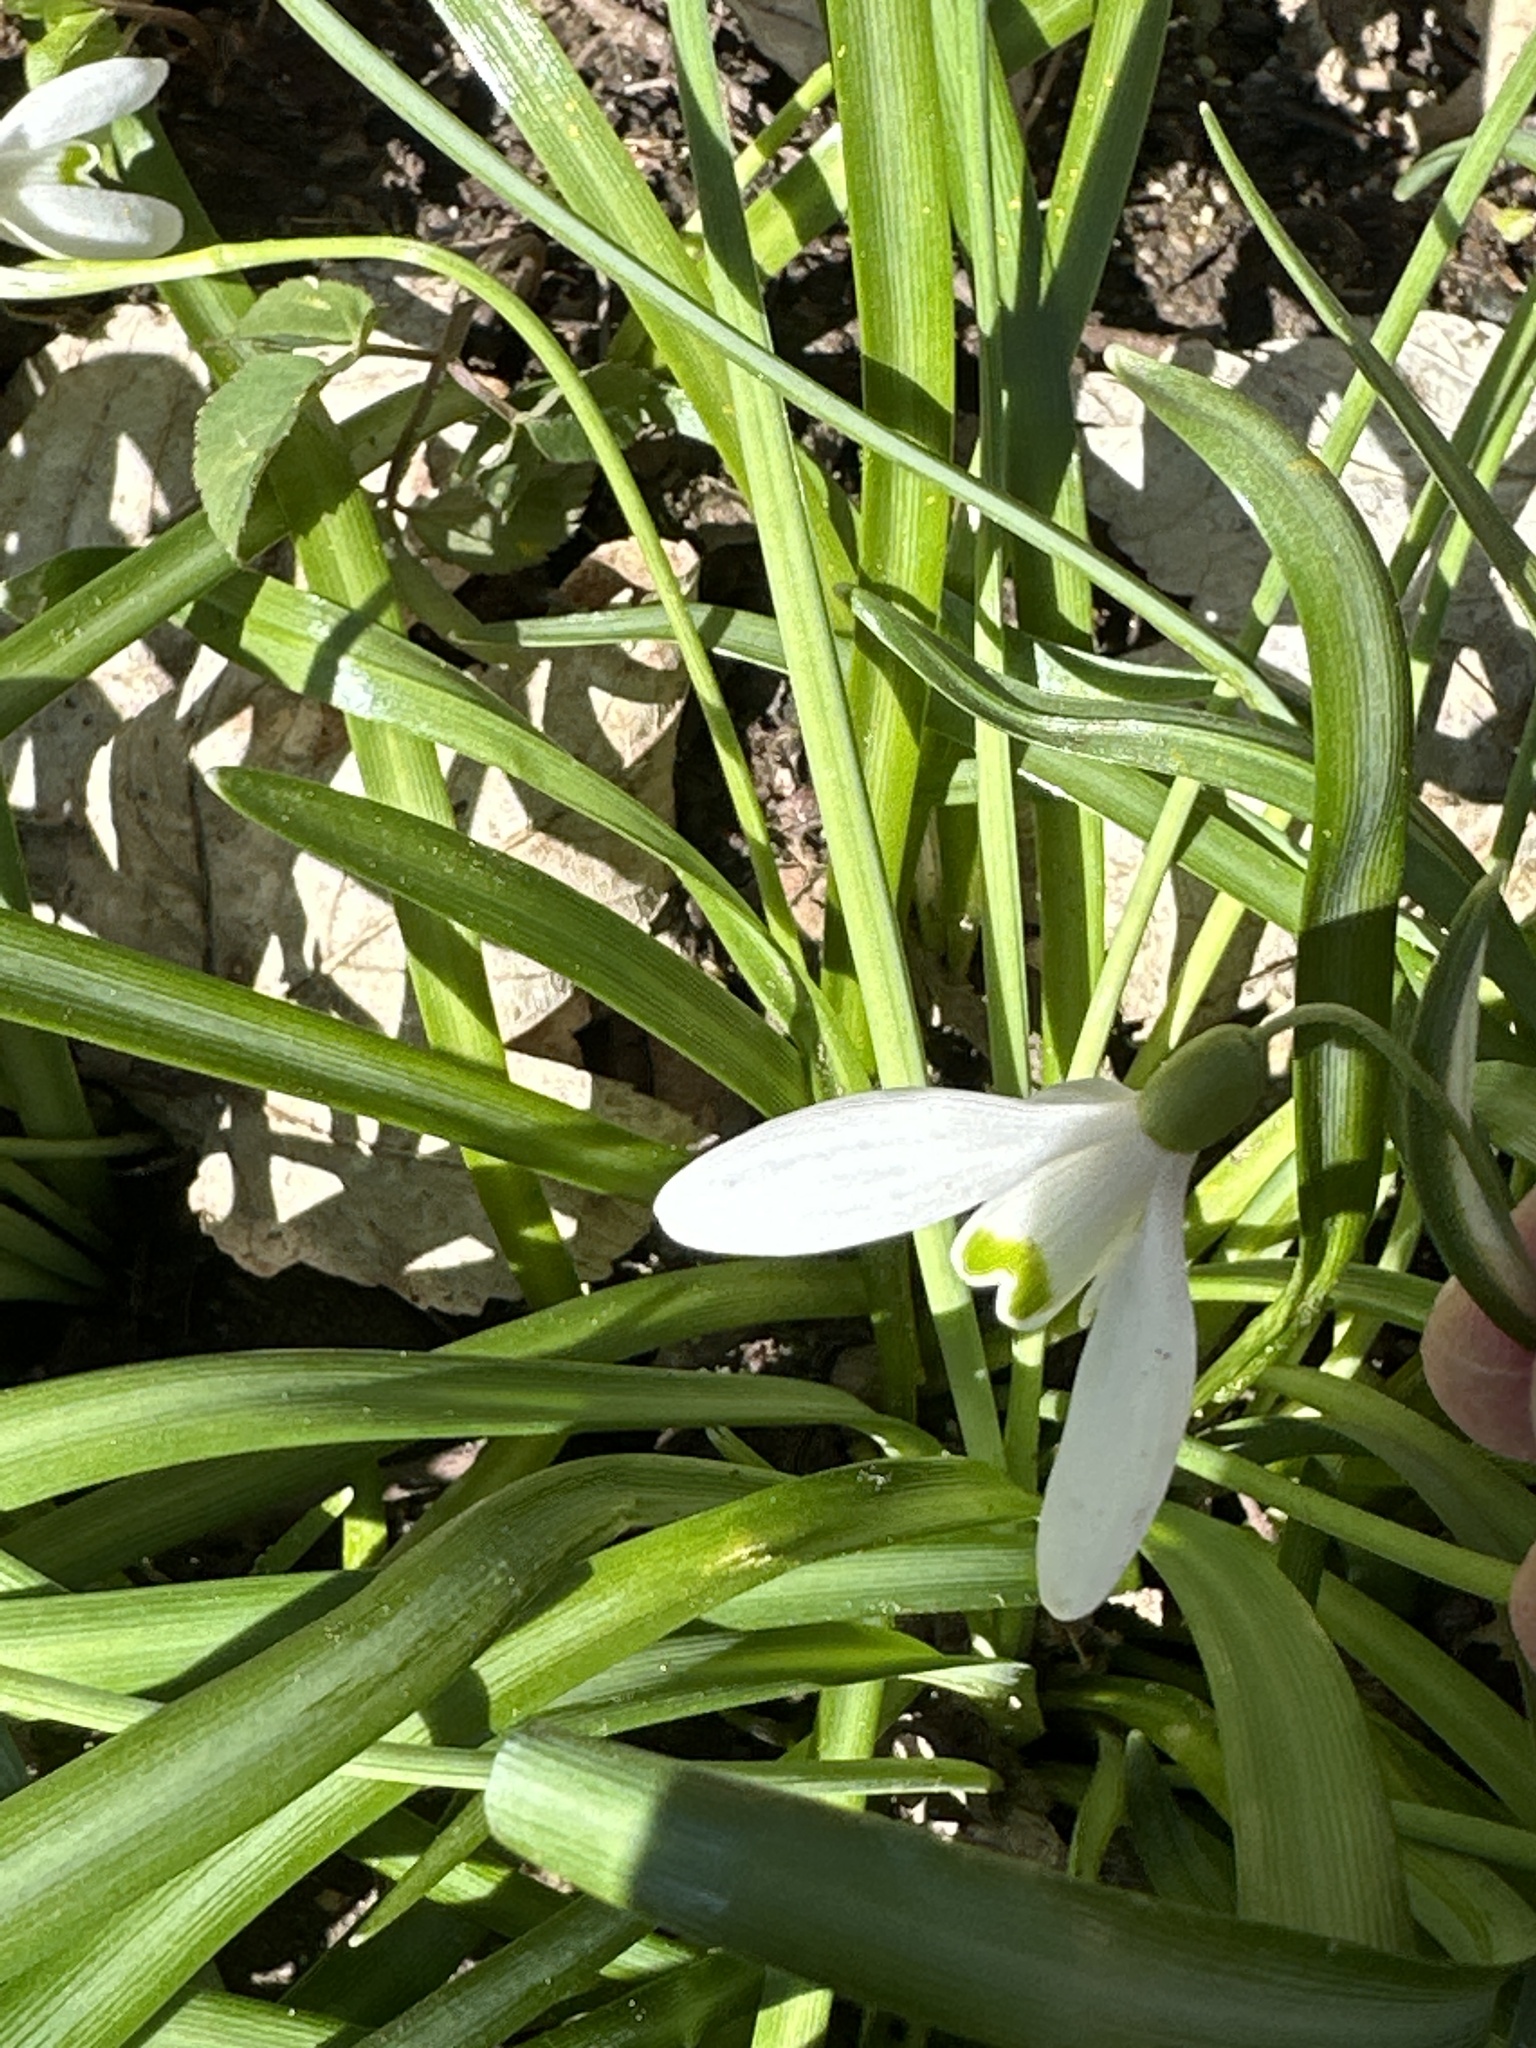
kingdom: Plantae
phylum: Tracheophyta
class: Liliopsida
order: Asparagales
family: Amaryllidaceae
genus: Galanthus
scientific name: Galanthus nivalis
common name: Snowdrop
